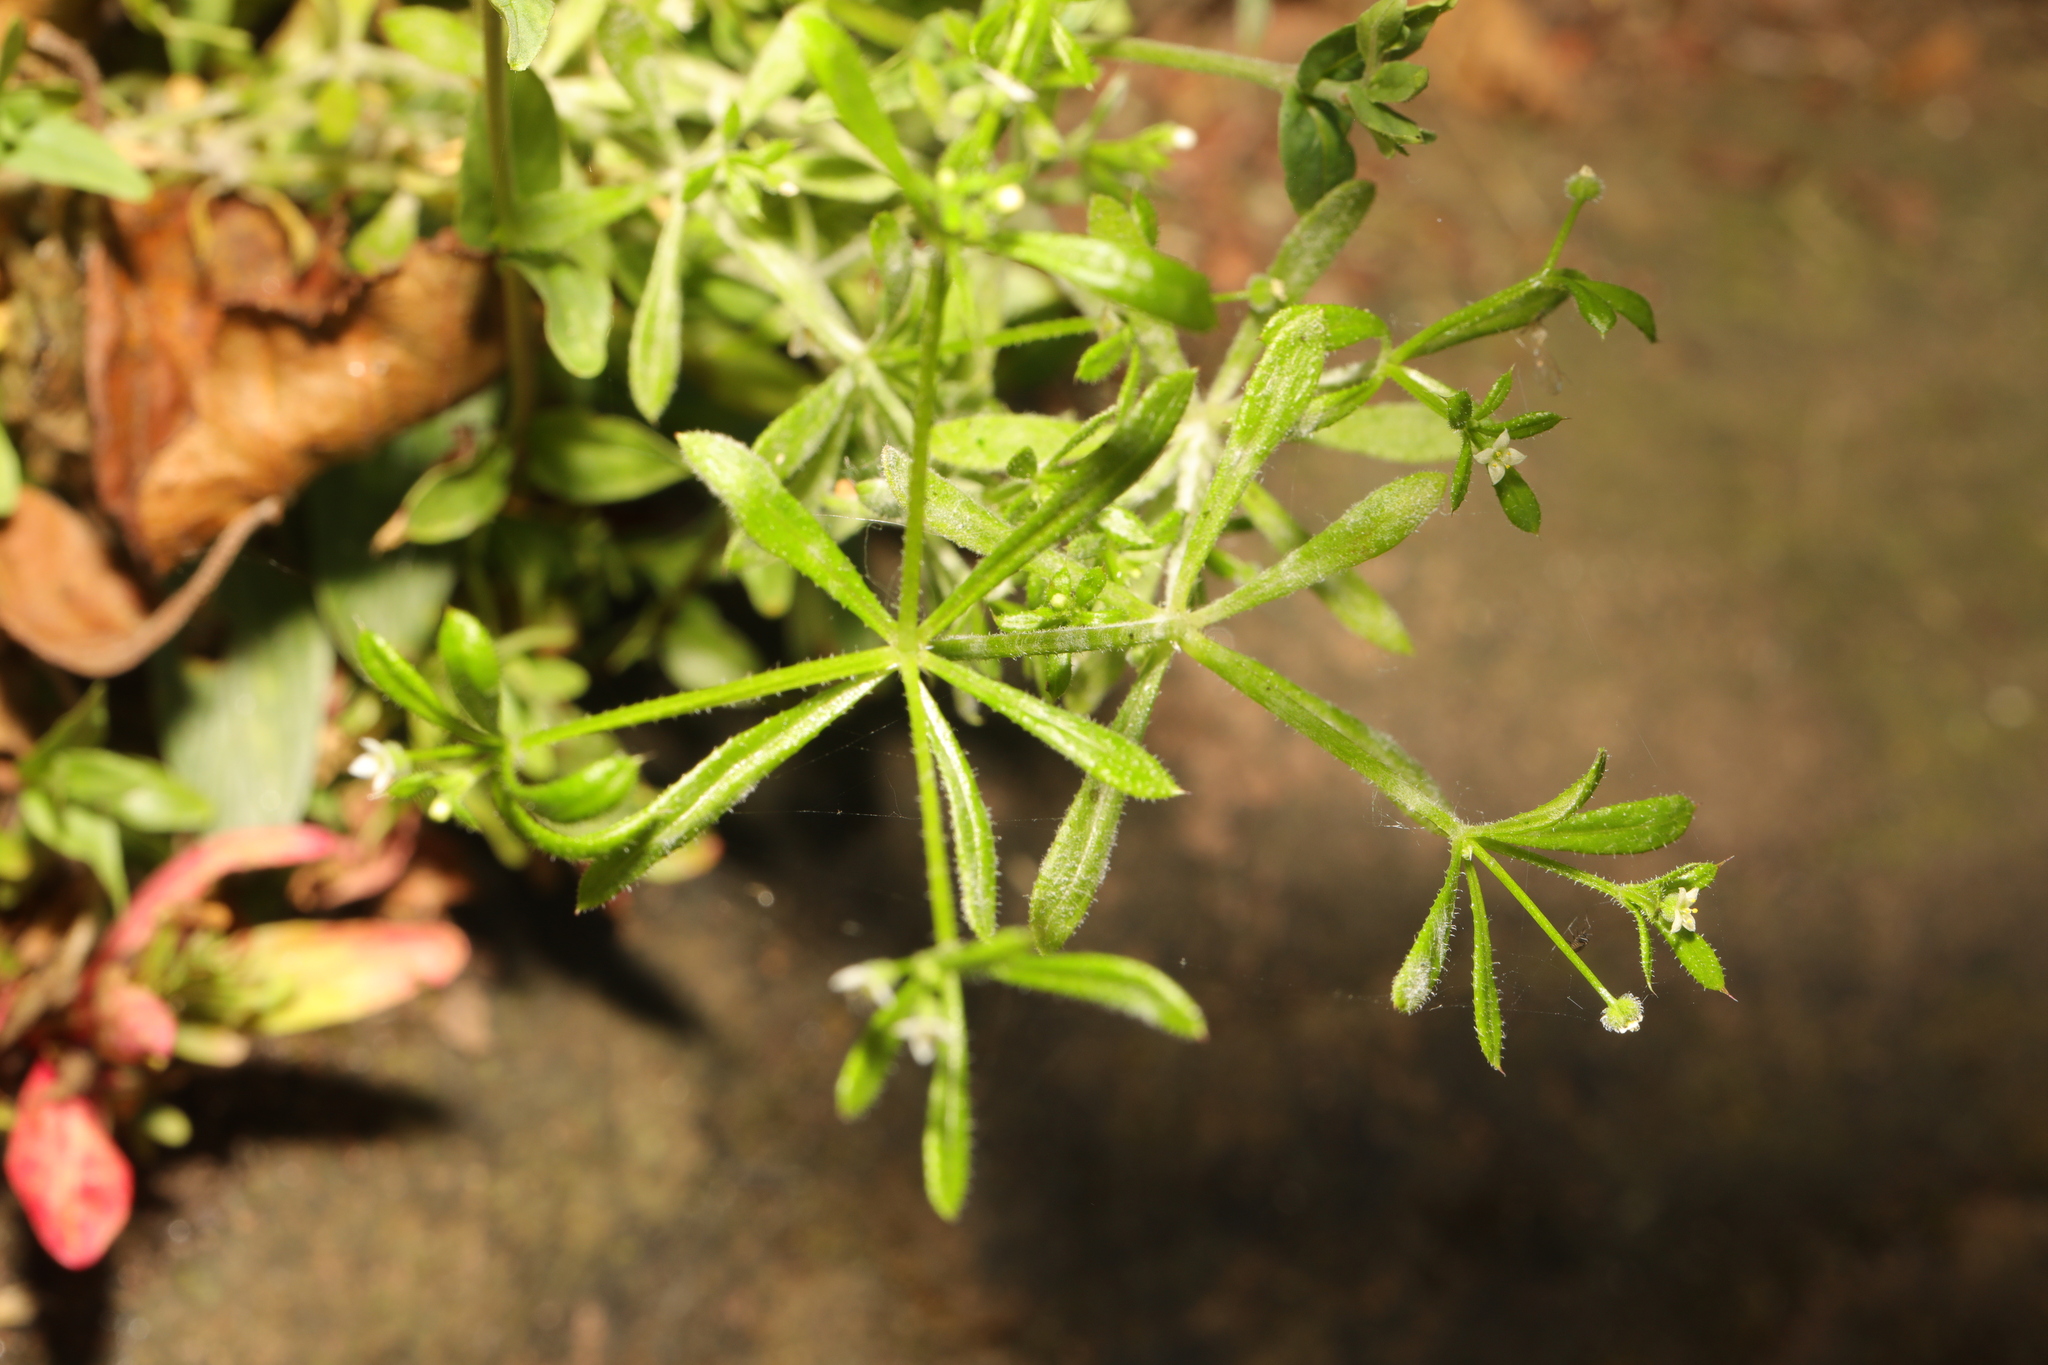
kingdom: Plantae
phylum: Tracheophyta
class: Magnoliopsida
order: Gentianales
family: Rubiaceae
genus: Galium
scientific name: Galium aparine
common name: Cleavers
